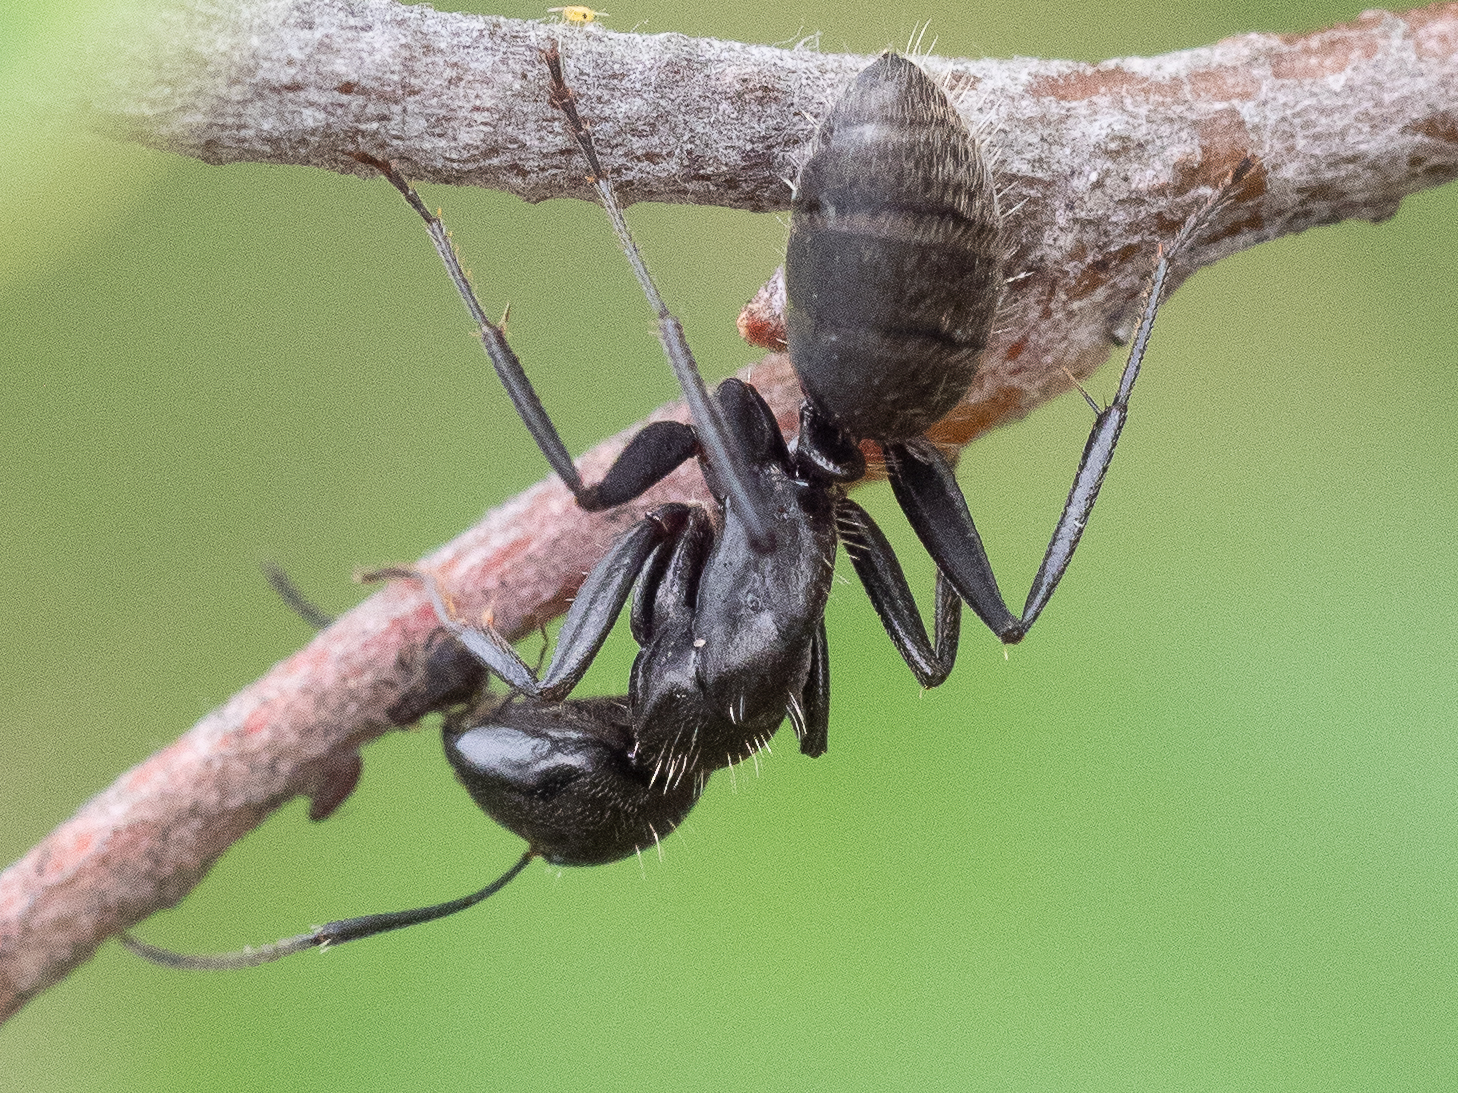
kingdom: Animalia
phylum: Arthropoda
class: Insecta
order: Hymenoptera
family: Formicidae
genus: Camponotus
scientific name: Camponotus vagus
